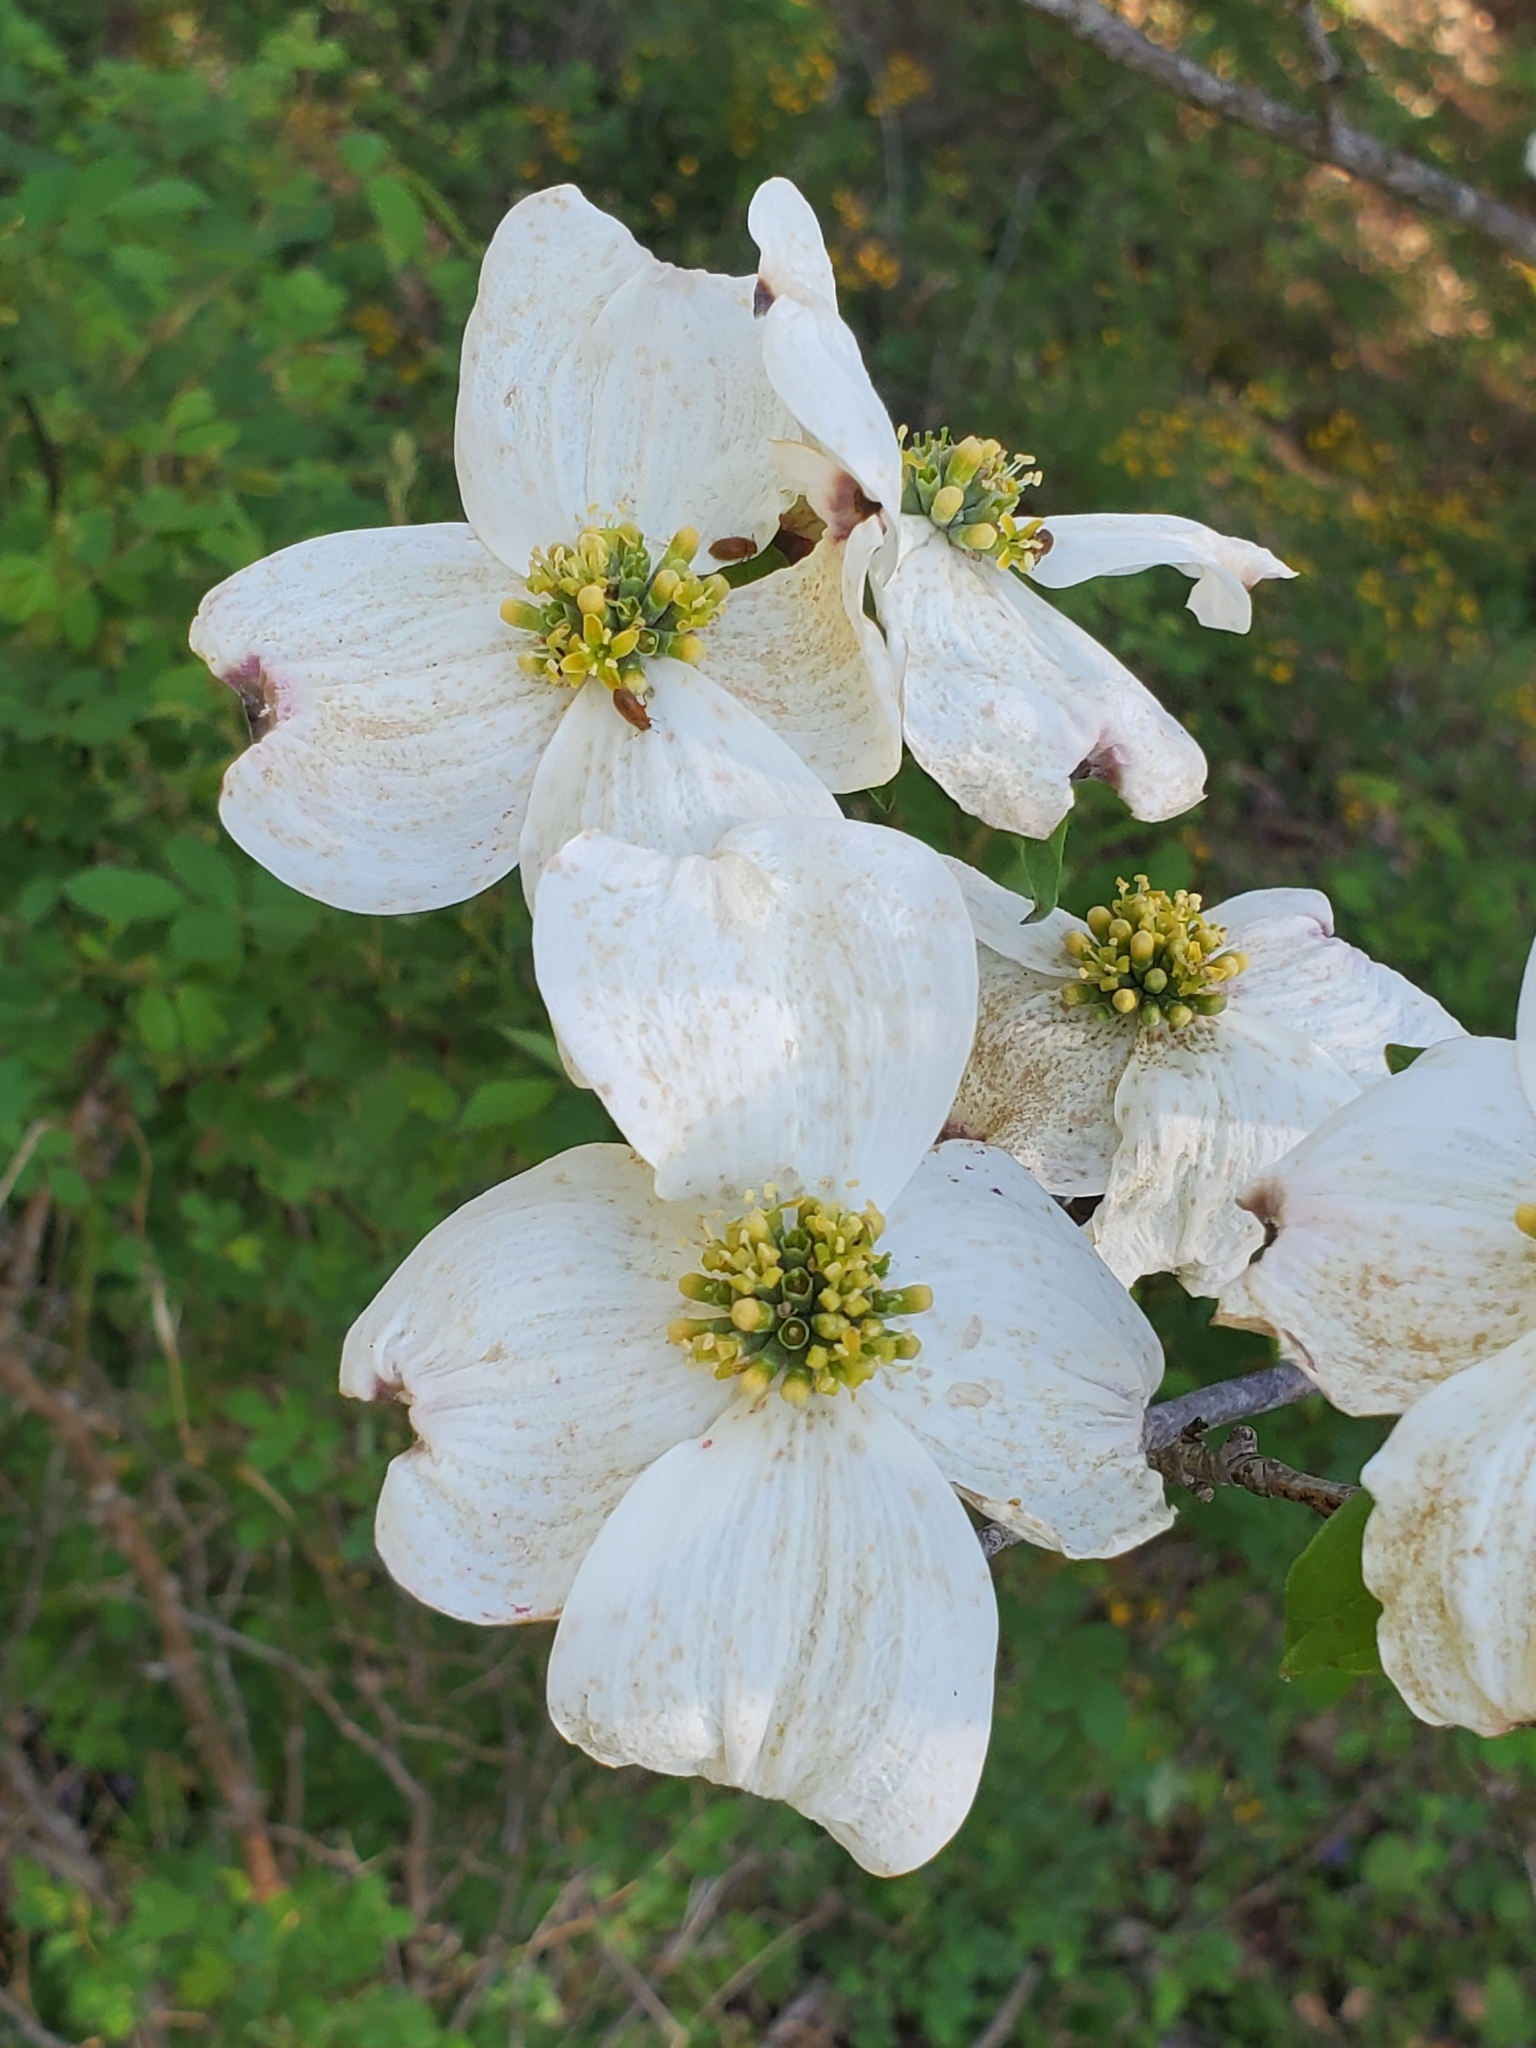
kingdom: Plantae
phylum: Tracheophyta
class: Magnoliopsida
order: Cornales
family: Cornaceae
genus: Cornus
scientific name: Cornus florida
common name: Flowering dogwood
